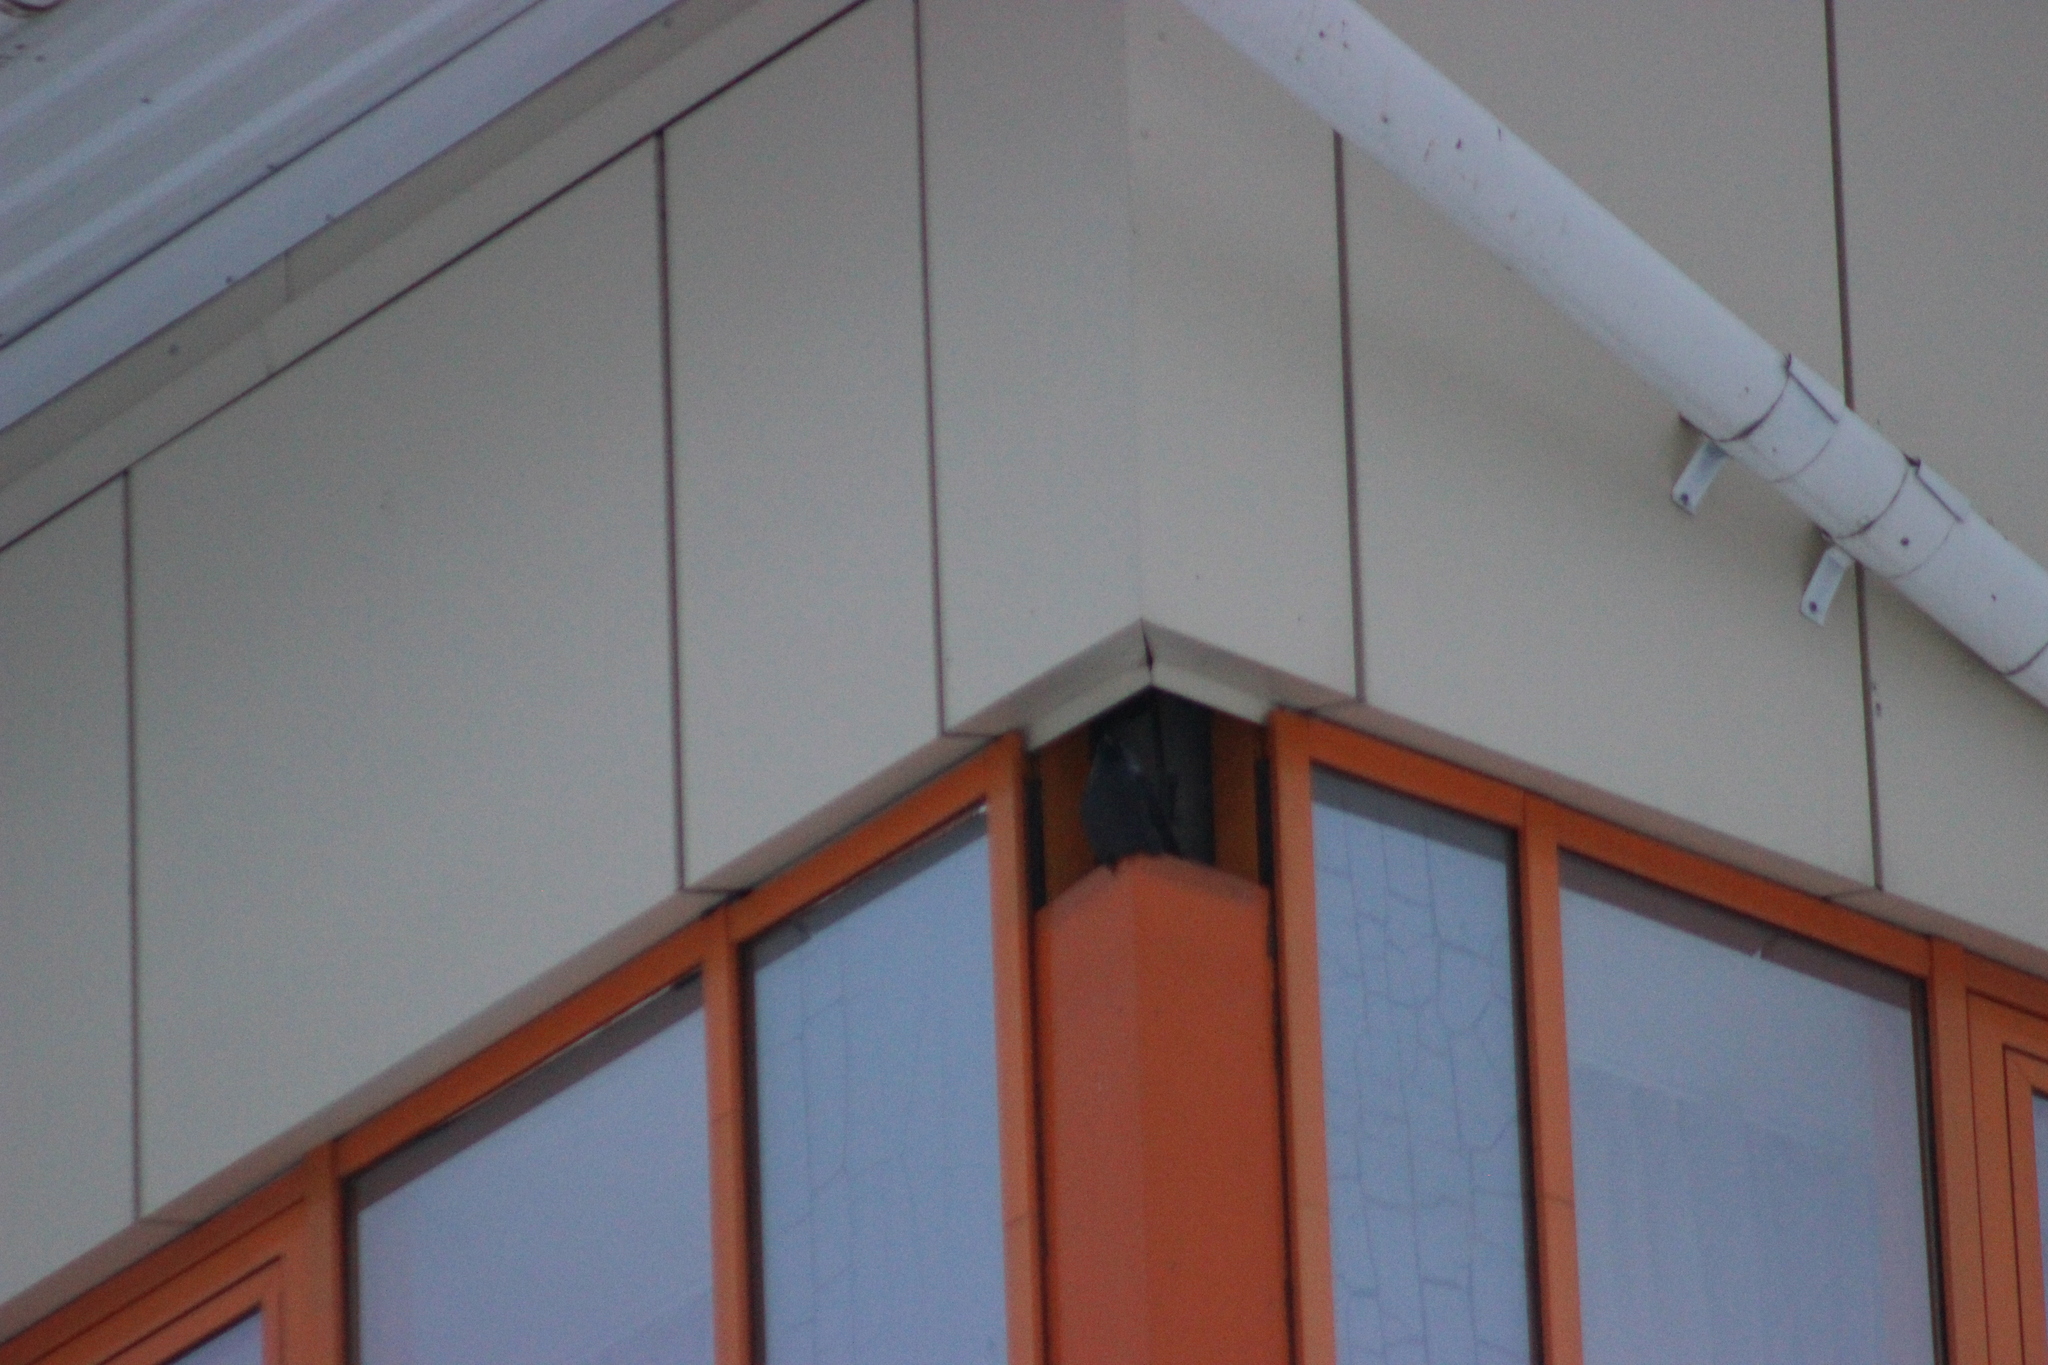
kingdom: Animalia
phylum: Chordata
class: Aves
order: Passeriformes
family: Corvidae
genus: Coloeus
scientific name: Coloeus monedula
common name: Western jackdaw
